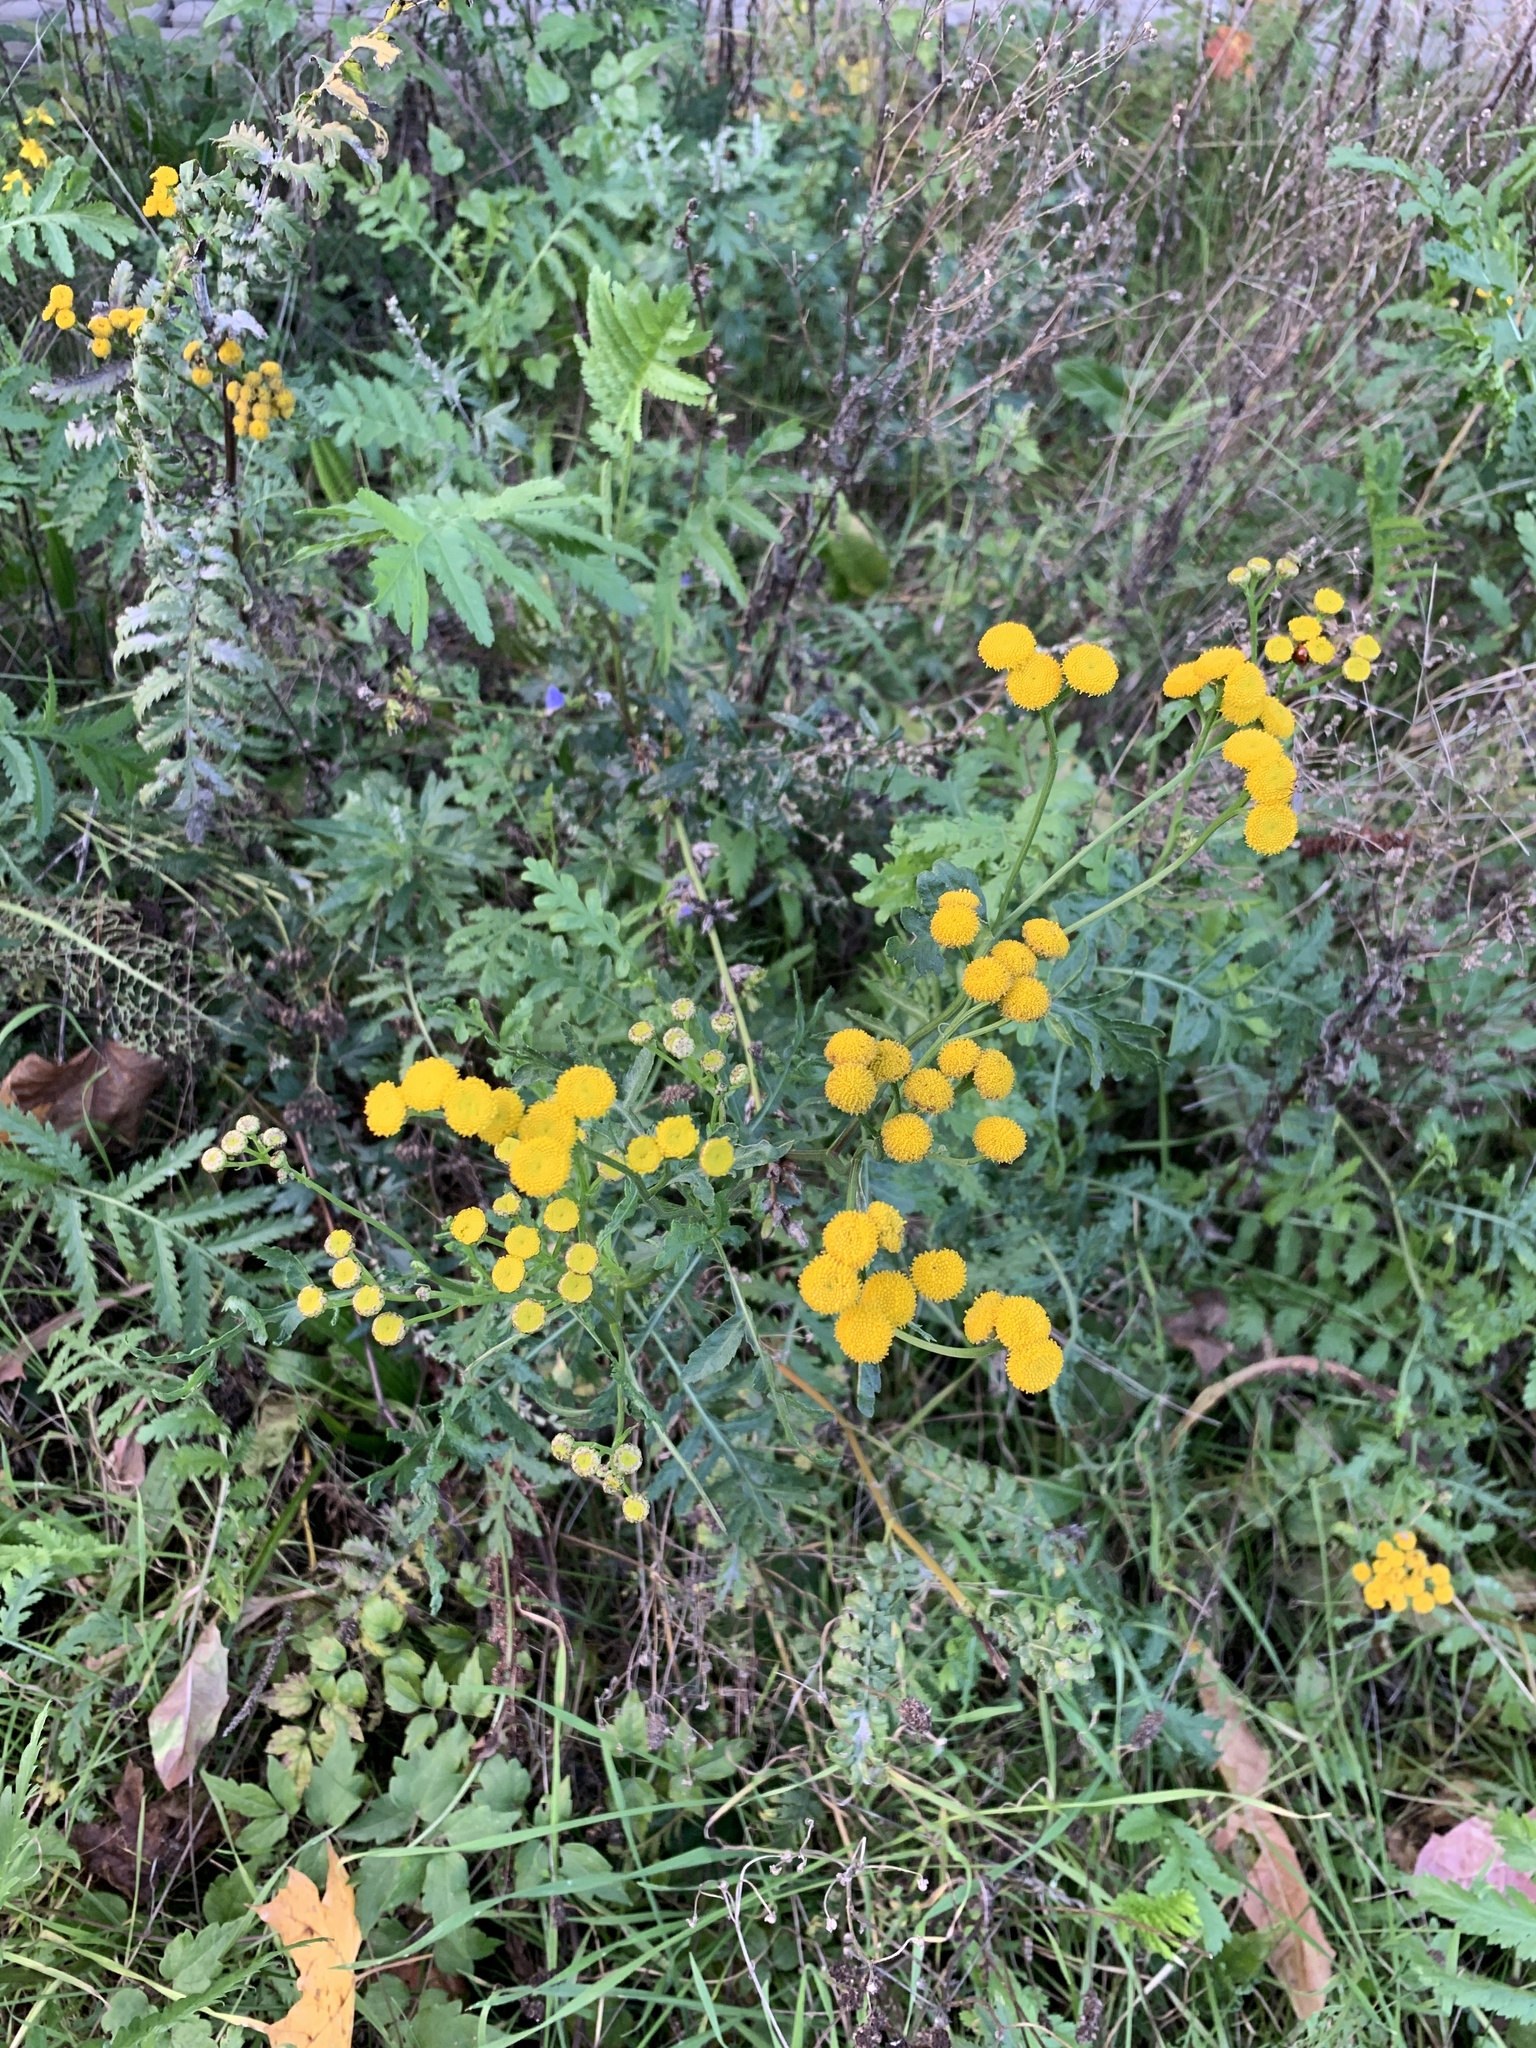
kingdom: Plantae
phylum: Tracheophyta
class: Magnoliopsida
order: Asterales
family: Asteraceae
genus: Tanacetum
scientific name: Tanacetum vulgare
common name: Common tansy
